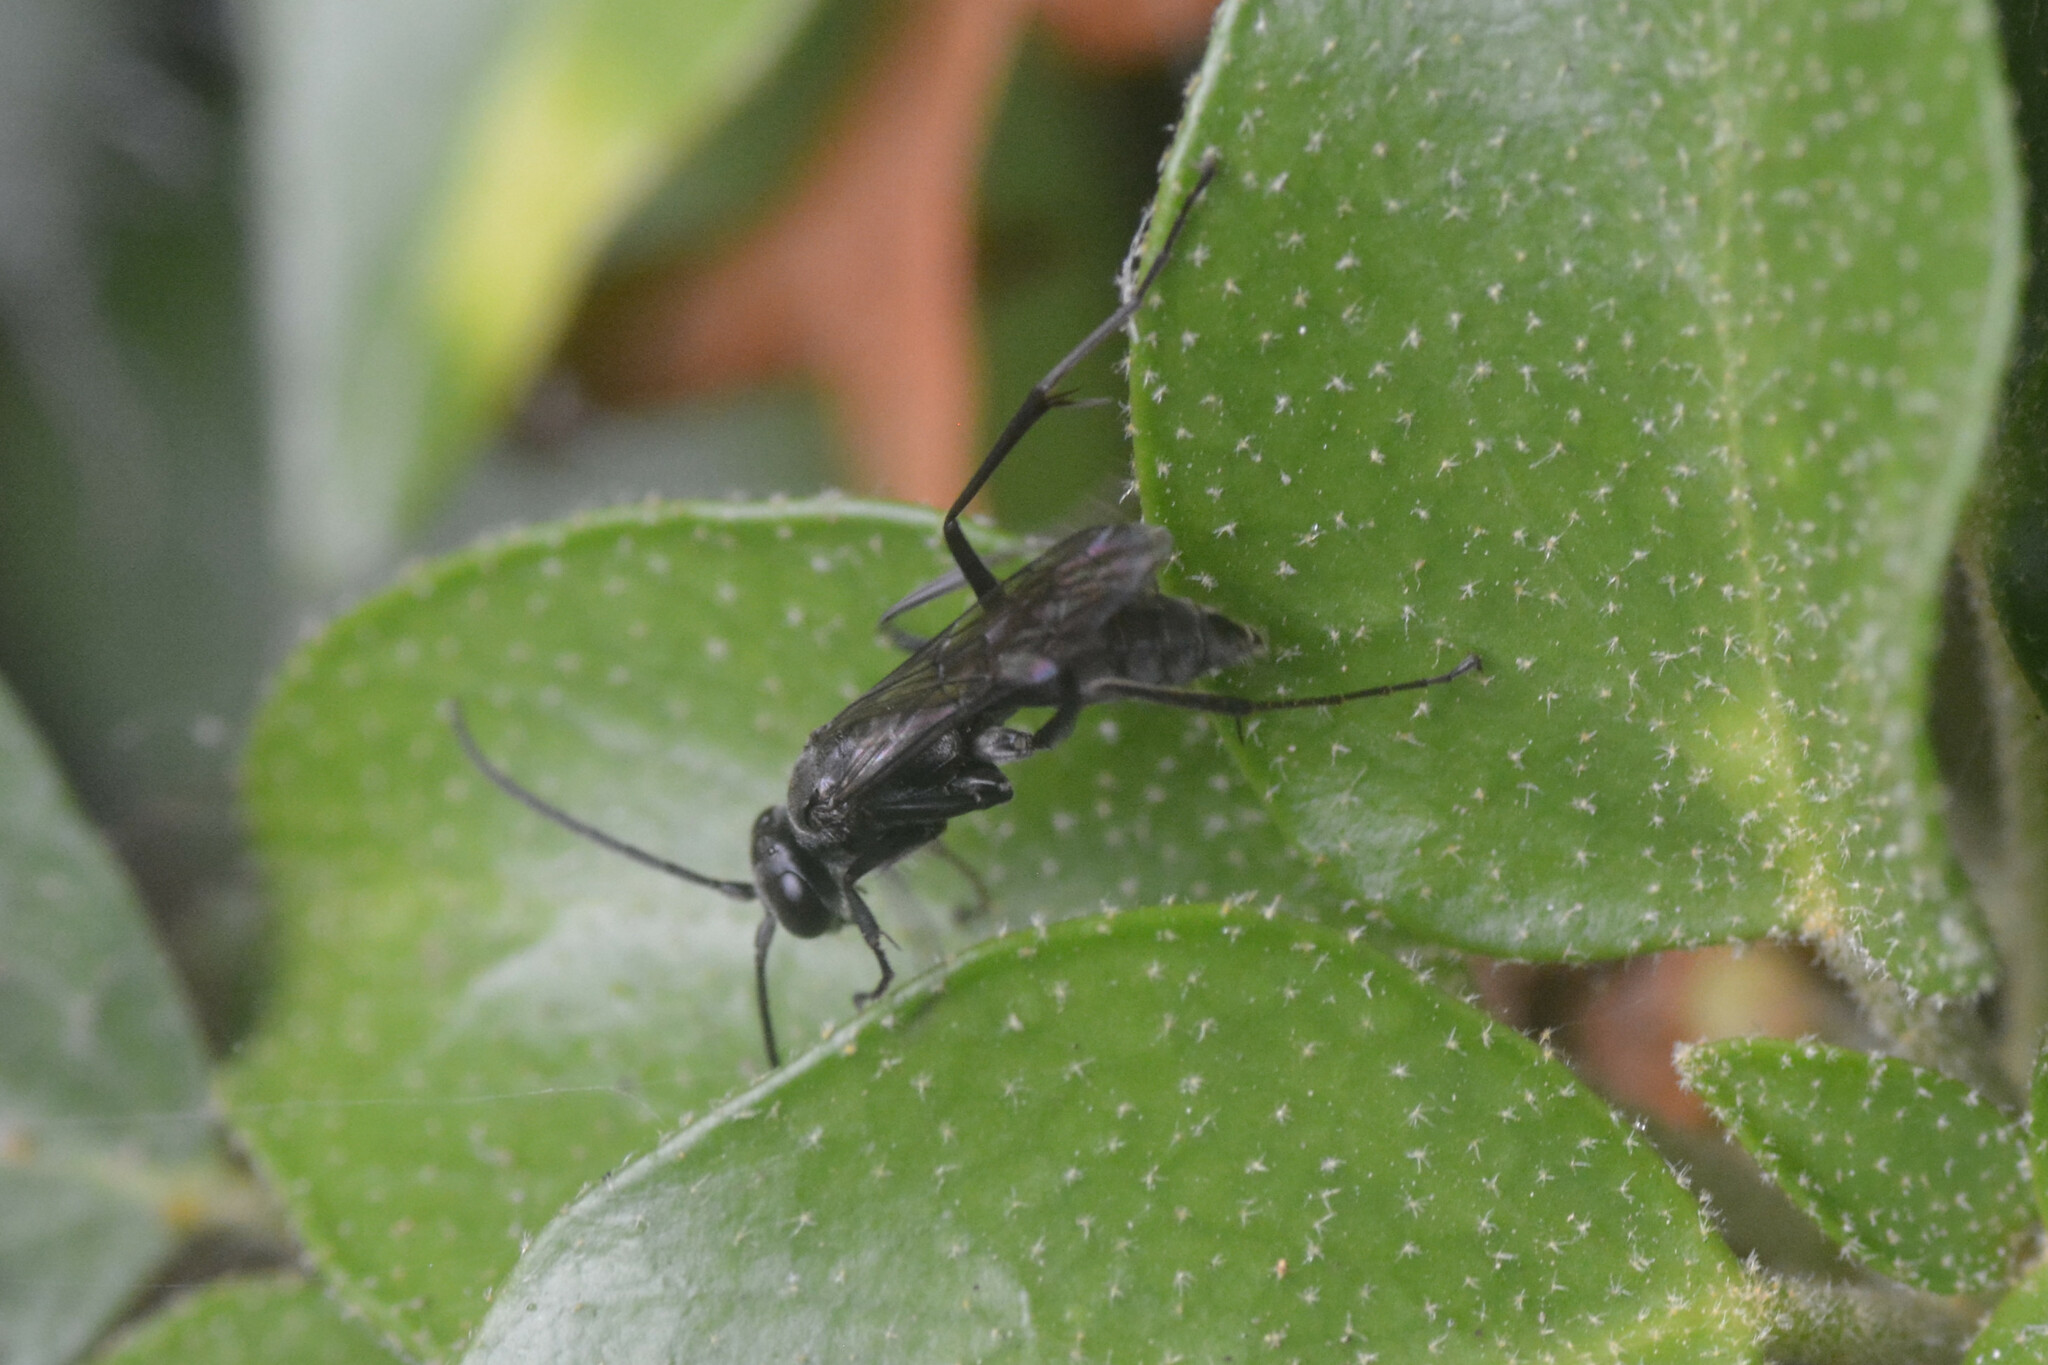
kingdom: Animalia
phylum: Arthropoda
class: Insecta
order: Hymenoptera
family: Pompilidae
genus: Auplopus
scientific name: Auplopus carbonarius
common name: Spider wasp
